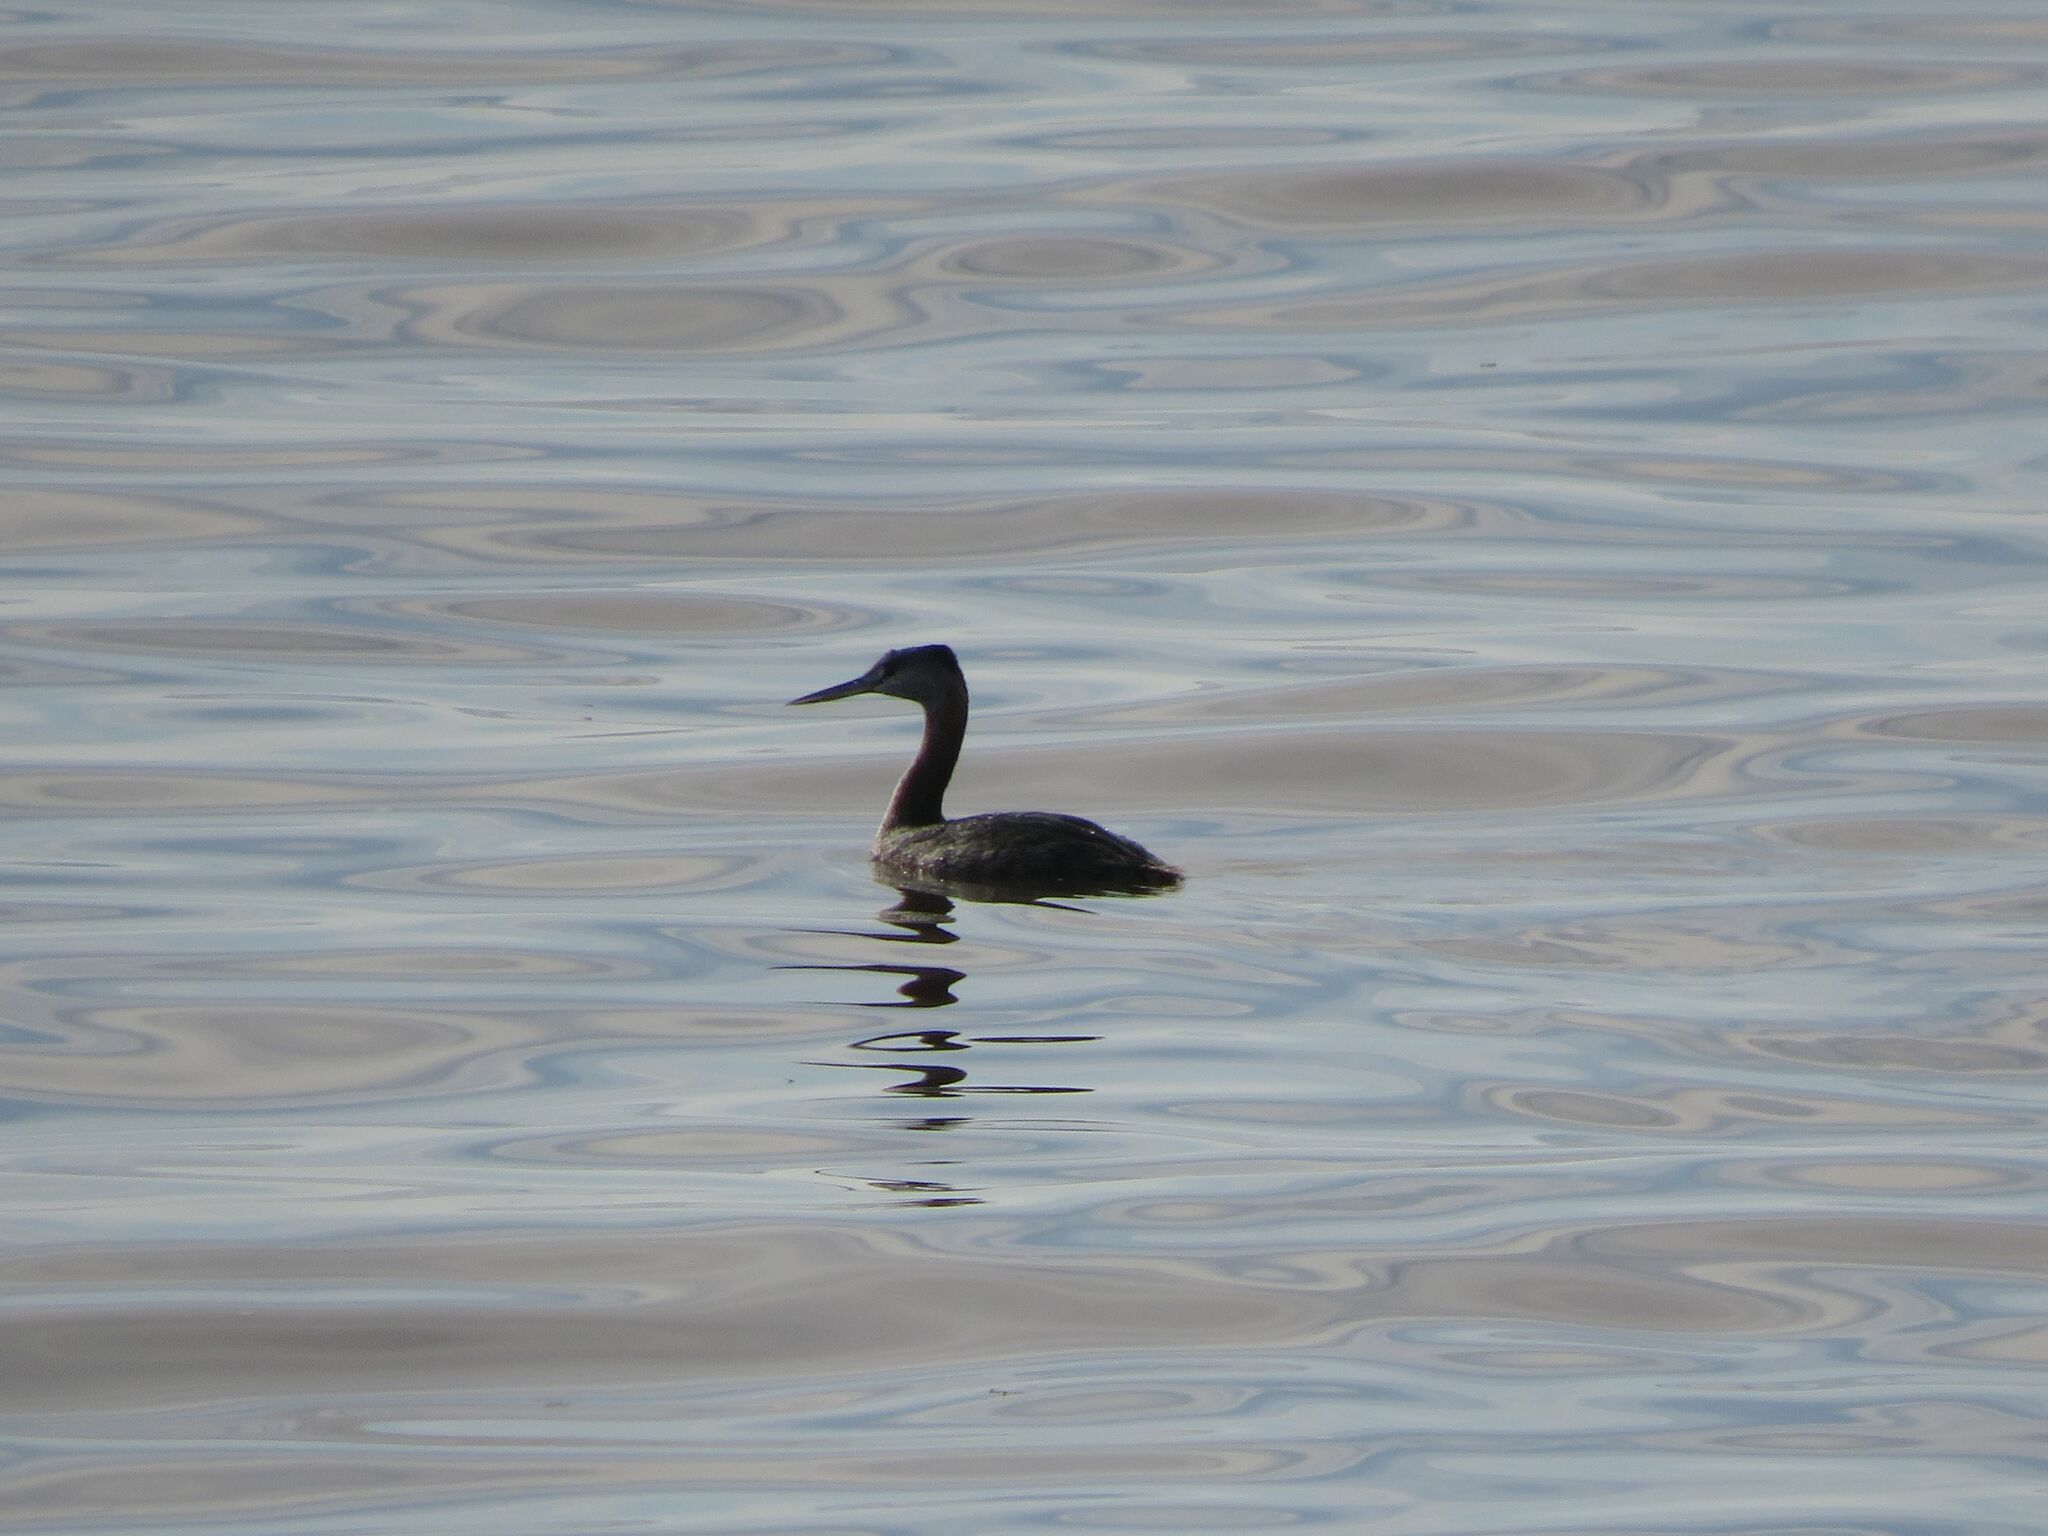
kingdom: Animalia
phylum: Chordata
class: Aves
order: Podicipediformes
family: Podicipedidae
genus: Podiceps
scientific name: Podiceps major
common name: Great grebe
